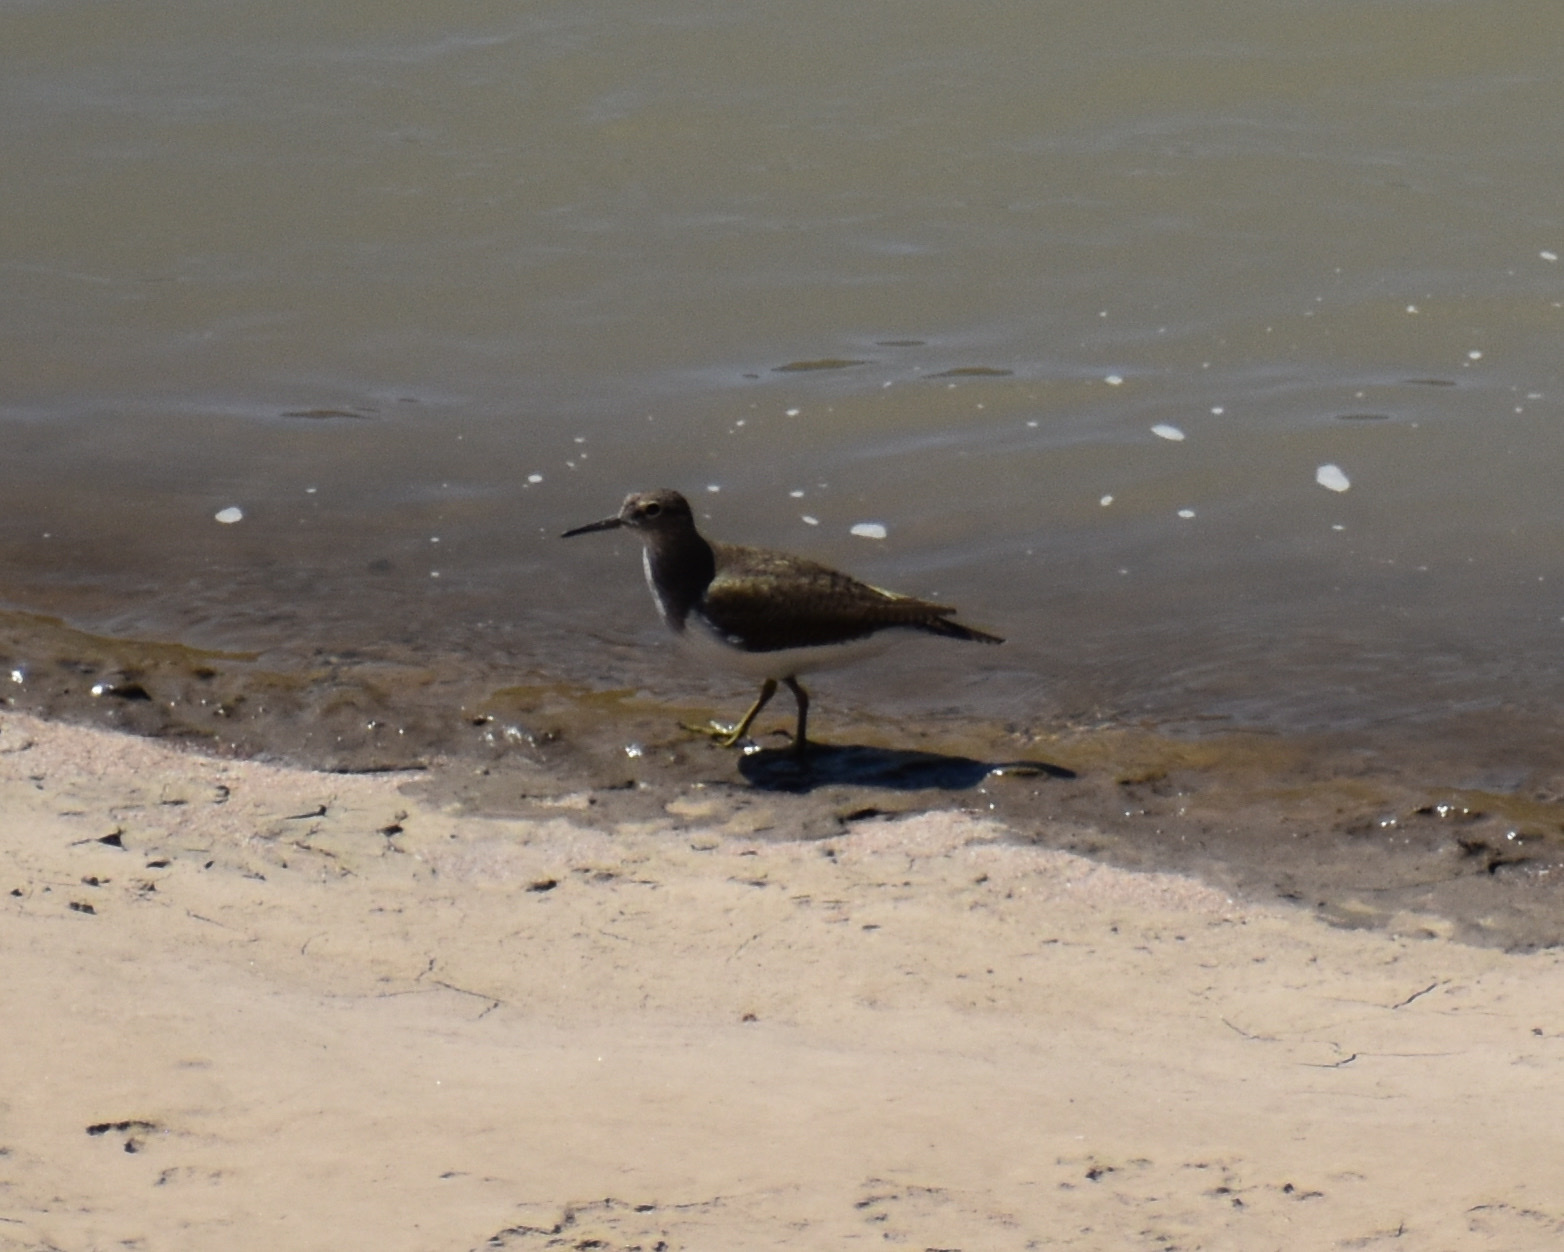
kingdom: Animalia
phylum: Chordata
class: Aves
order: Charadriiformes
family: Scolopacidae
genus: Actitis
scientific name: Actitis hypoleucos
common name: Common sandpiper
